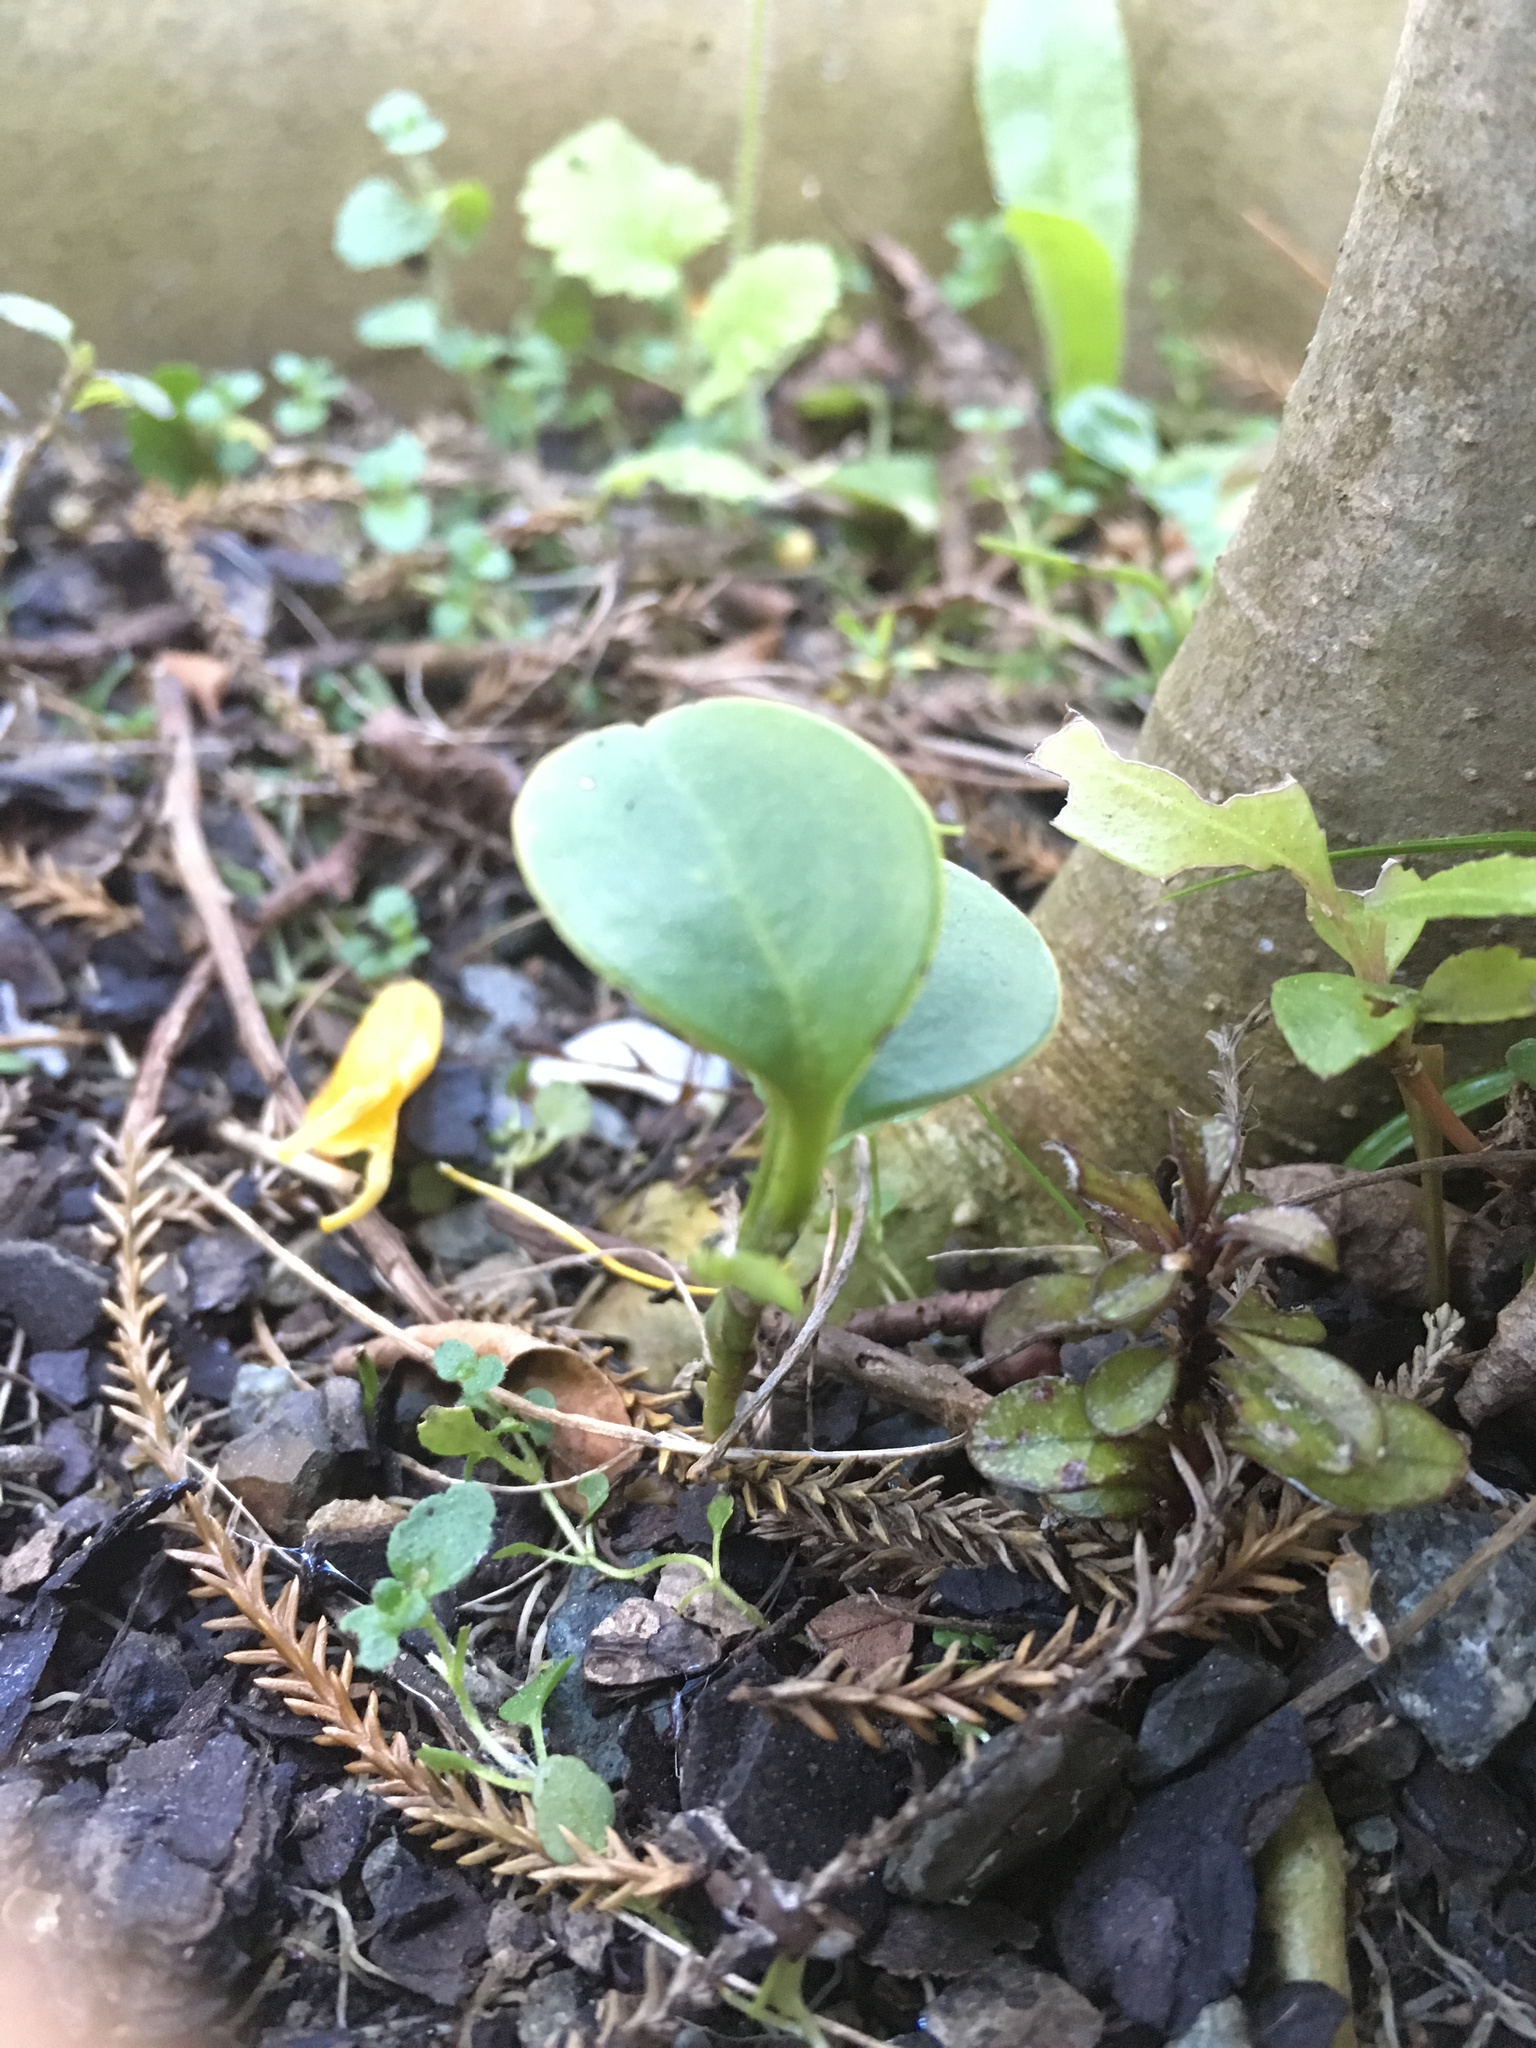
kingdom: Plantae
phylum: Tracheophyta
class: Magnoliopsida
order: Apiales
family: Griseliniaceae
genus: Griselinia
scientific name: Griselinia littoralis
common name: New zealand broadleaf
